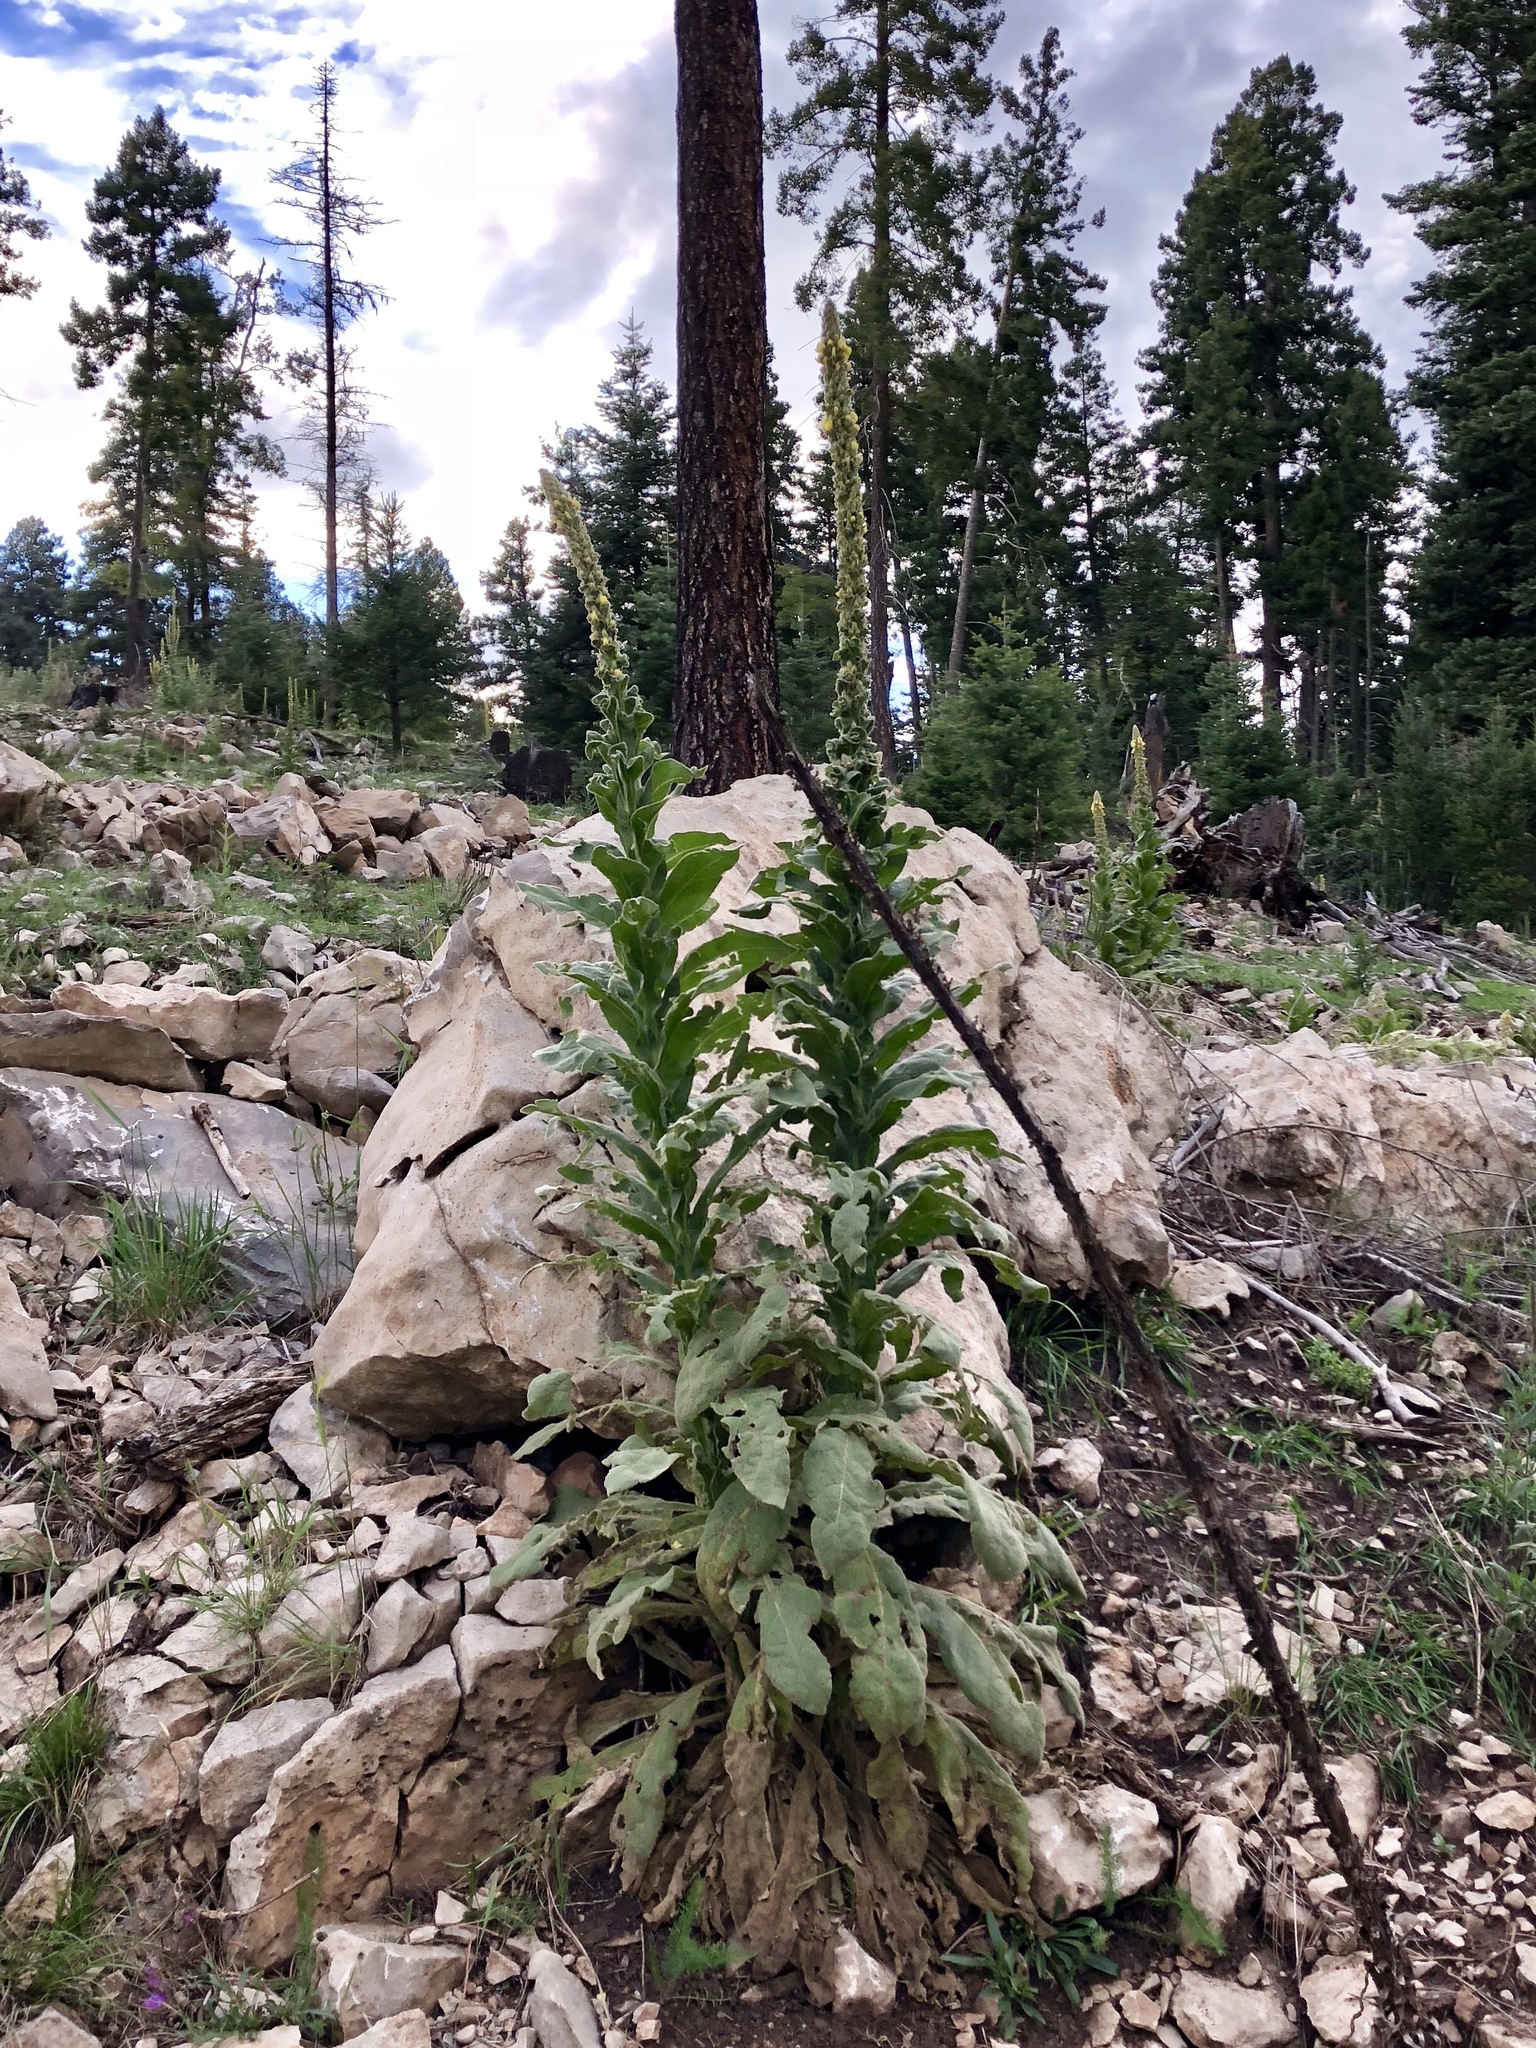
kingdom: Plantae
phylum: Tracheophyta
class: Magnoliopsida
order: Lamiales
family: Scrophulariaceae
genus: Verbascum
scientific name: Verbascum thapsus
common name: Common mullein
